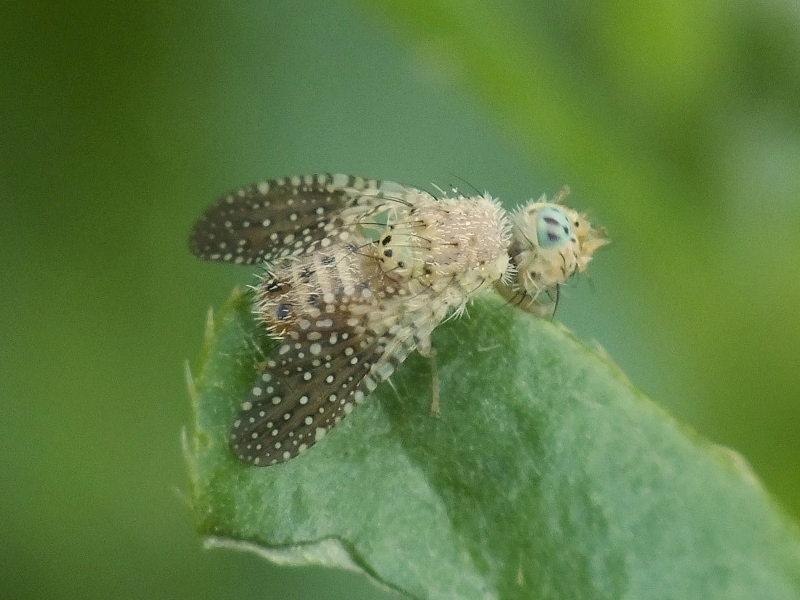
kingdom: Animalia
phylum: Arthropoda
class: Insecta
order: Diptera
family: Tephritidae
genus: Paracanthella
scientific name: Paracanthella pavonina
